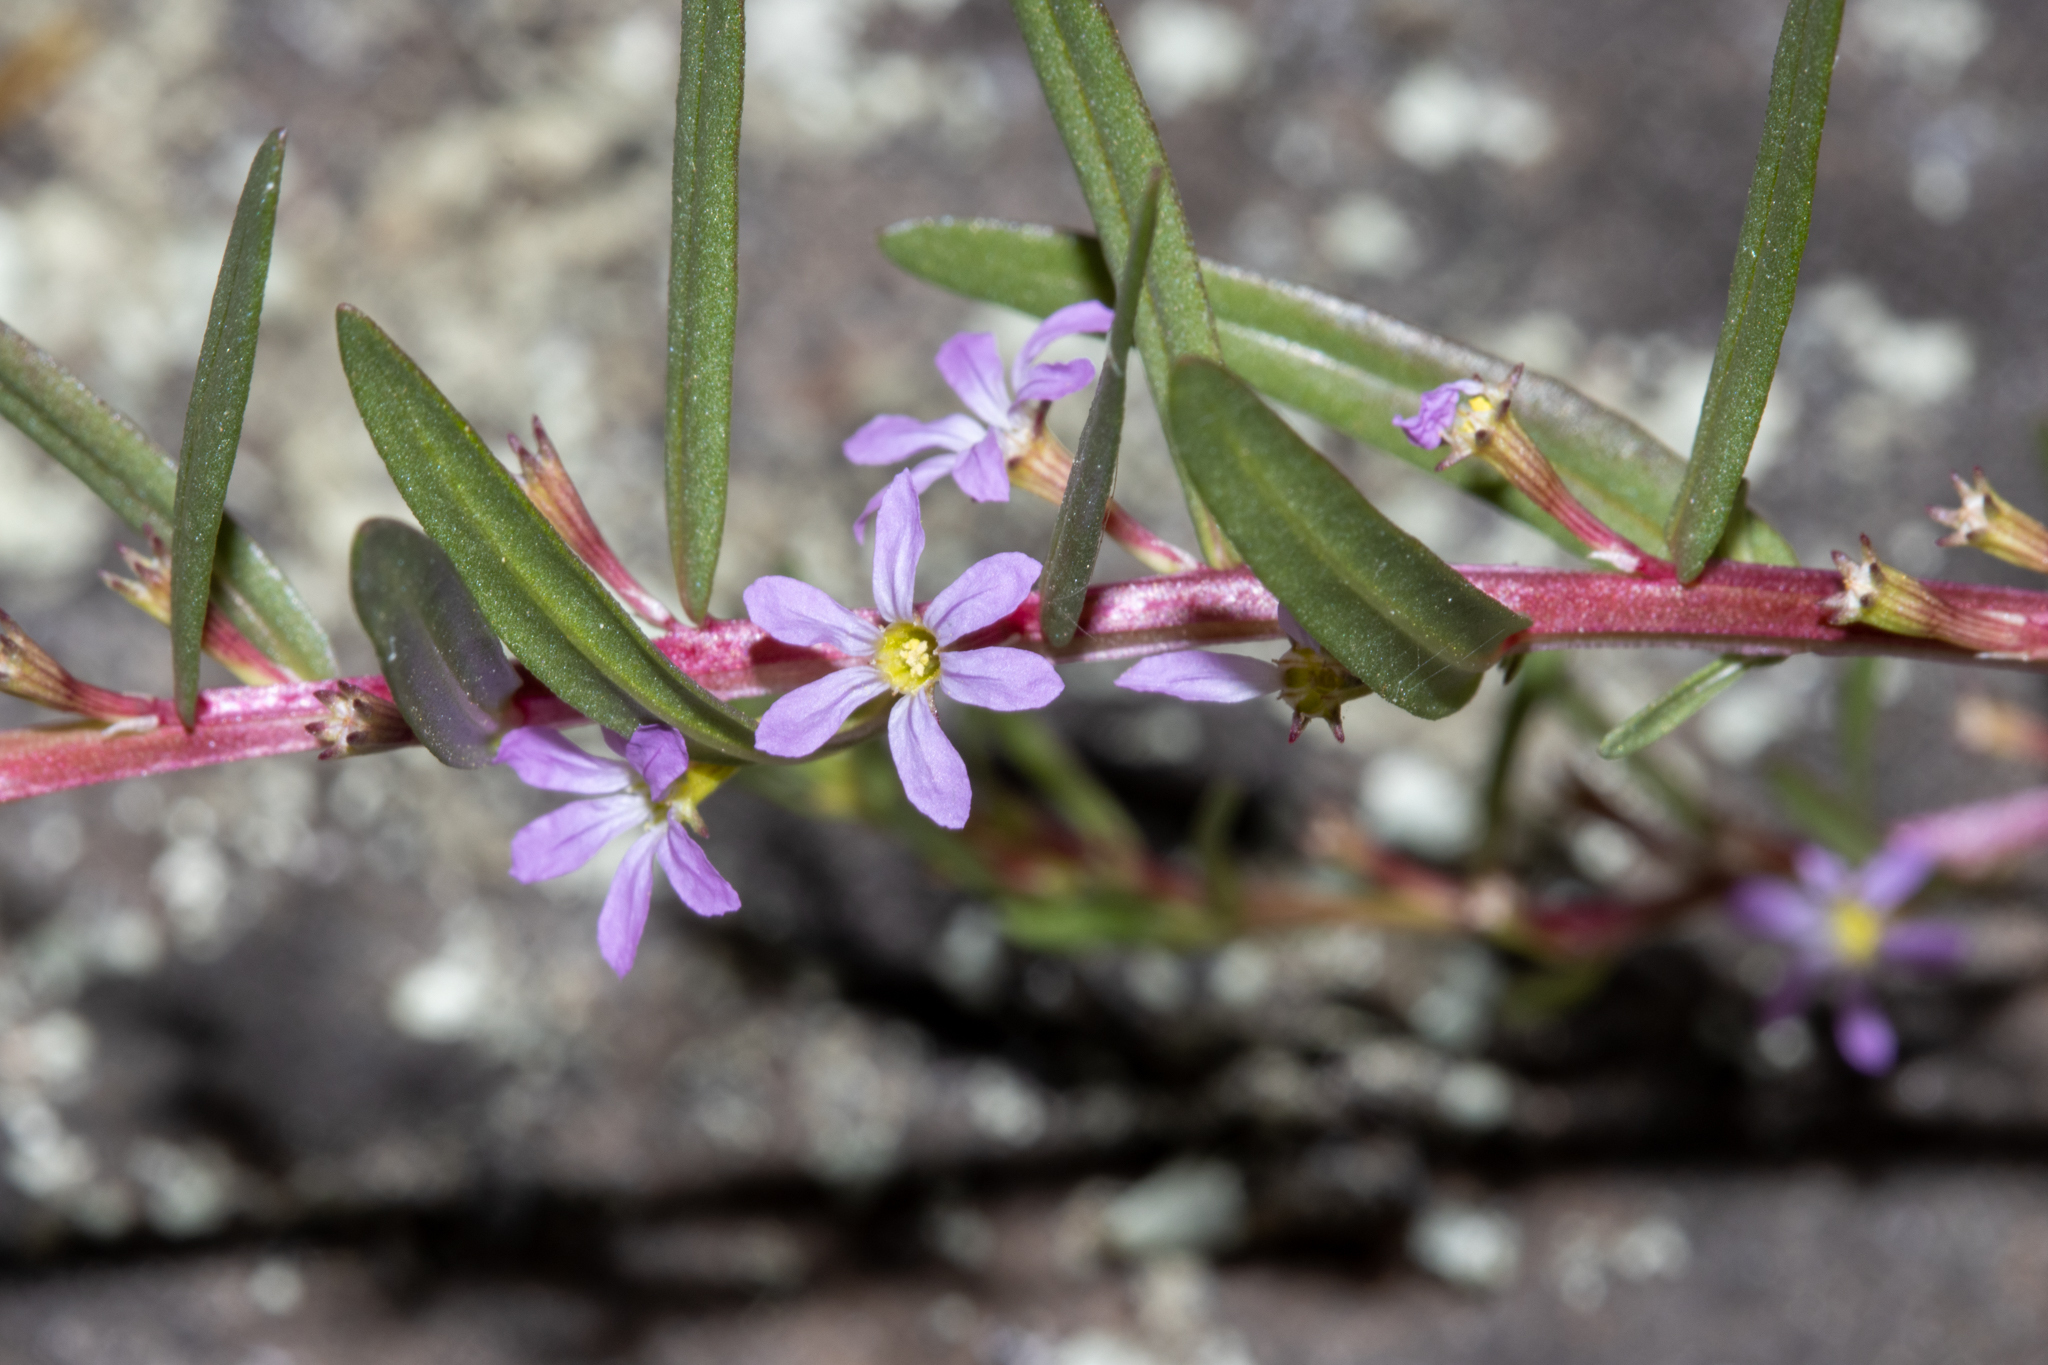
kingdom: Plantae
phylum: Tracheophyta
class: Magnoliopsida
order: Myrtales
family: Lythraceae
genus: Lythrum
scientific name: Lythrum hyssopifolia
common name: Grass-poly
